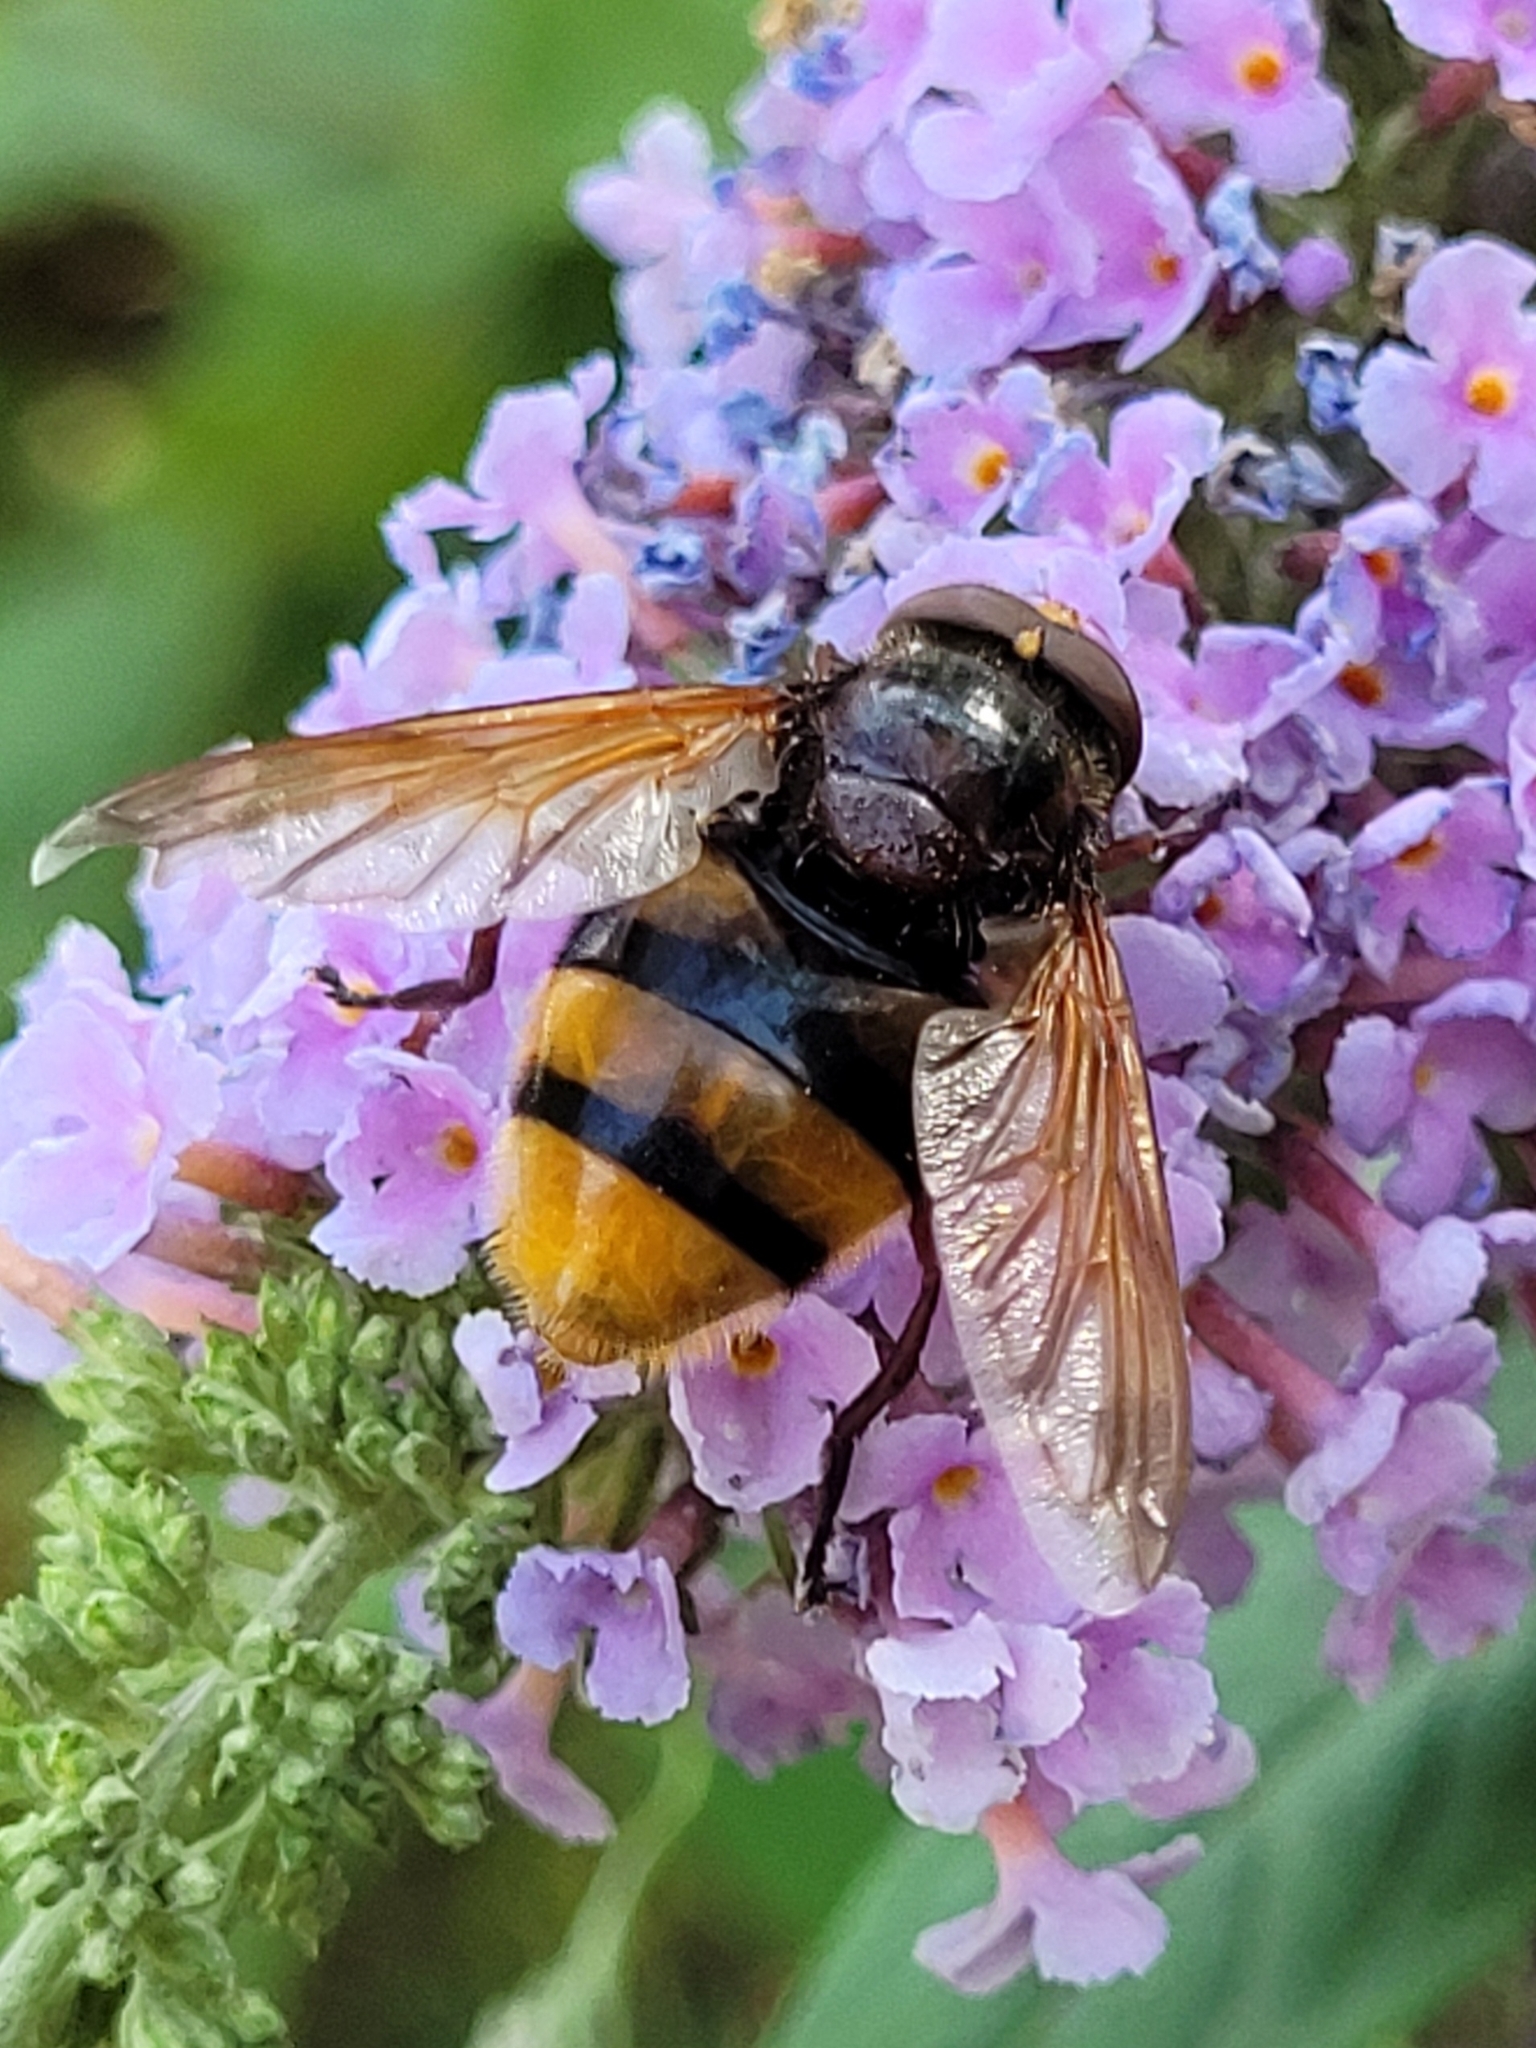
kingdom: Animalia
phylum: Arthropoda
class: Insecta
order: Diptera
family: Syrphidae
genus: Volucella
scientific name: Volucella zonaria
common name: Hornet hoverfly
